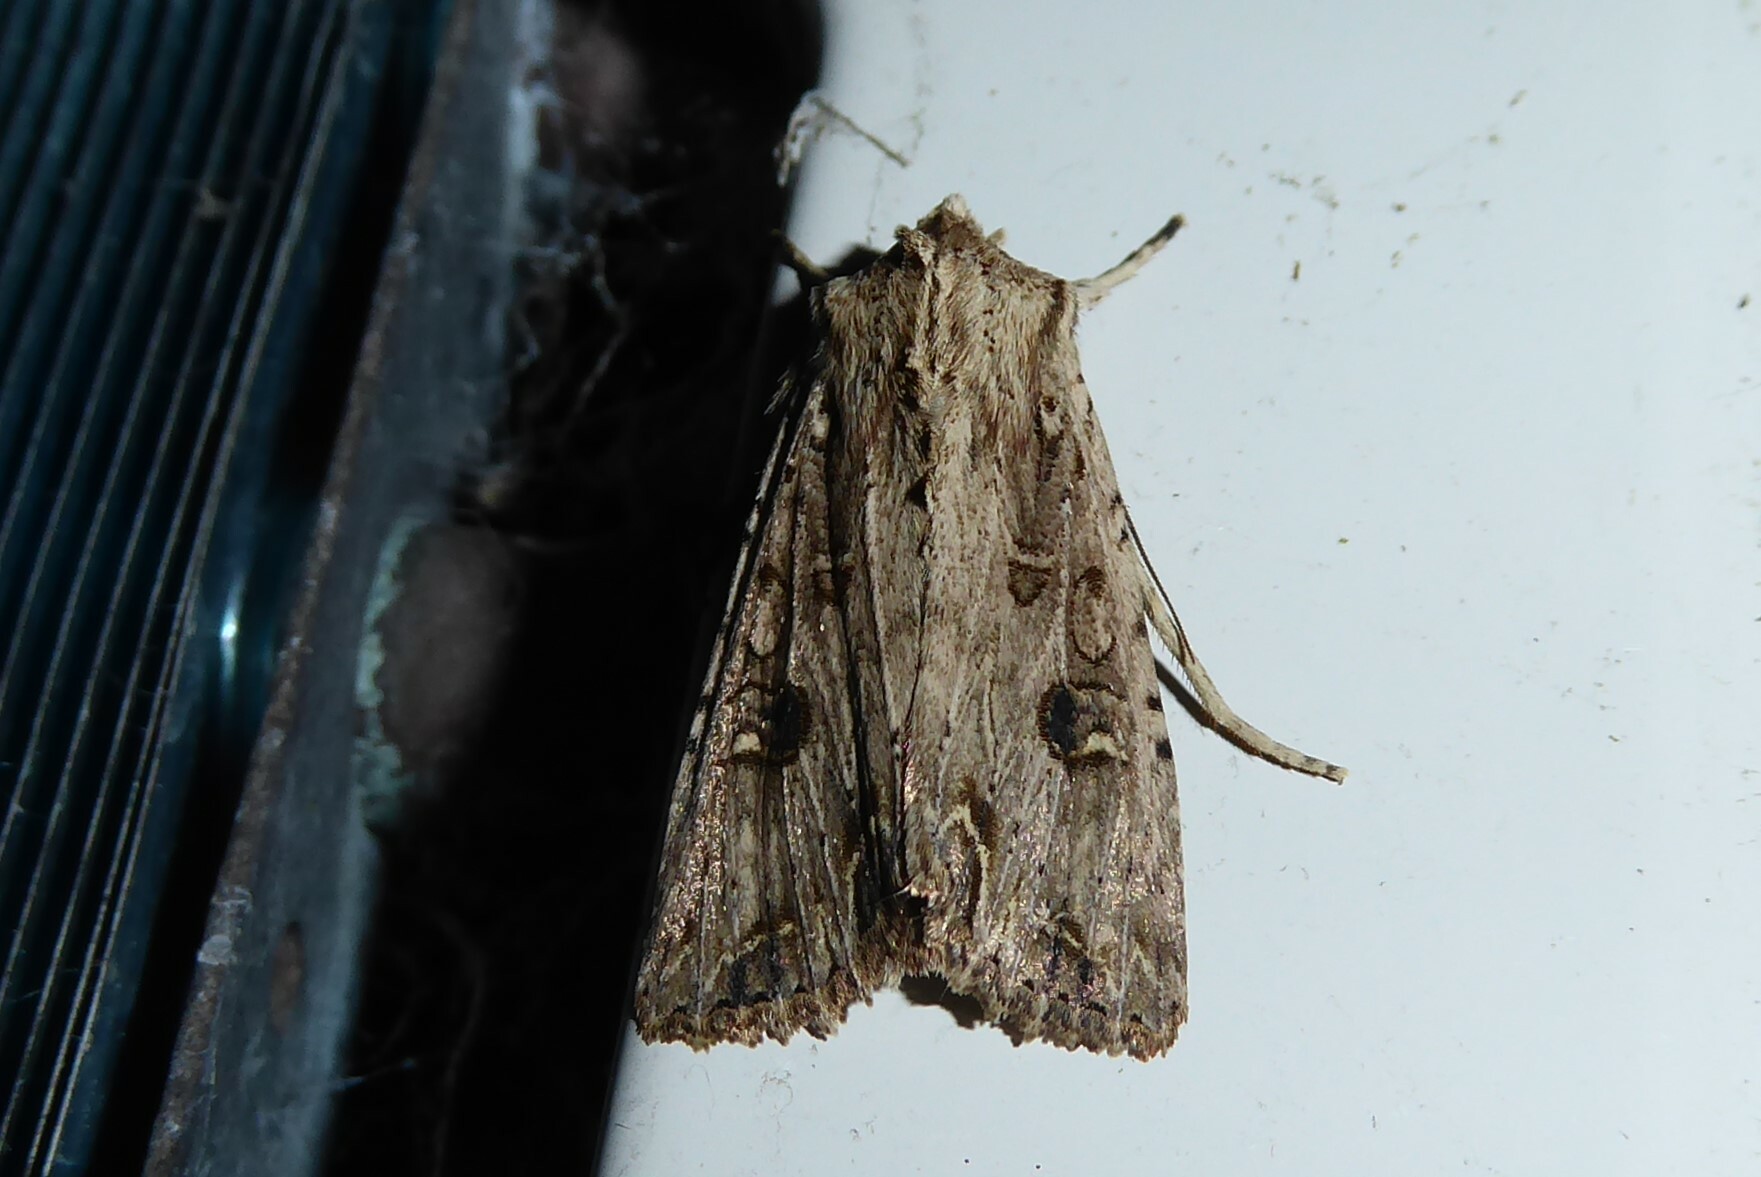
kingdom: Animalia
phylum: Arthropoda
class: Insecta
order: Lepidoptera
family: Noctuidae
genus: Ichneutica
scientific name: Ichneutica lignana
